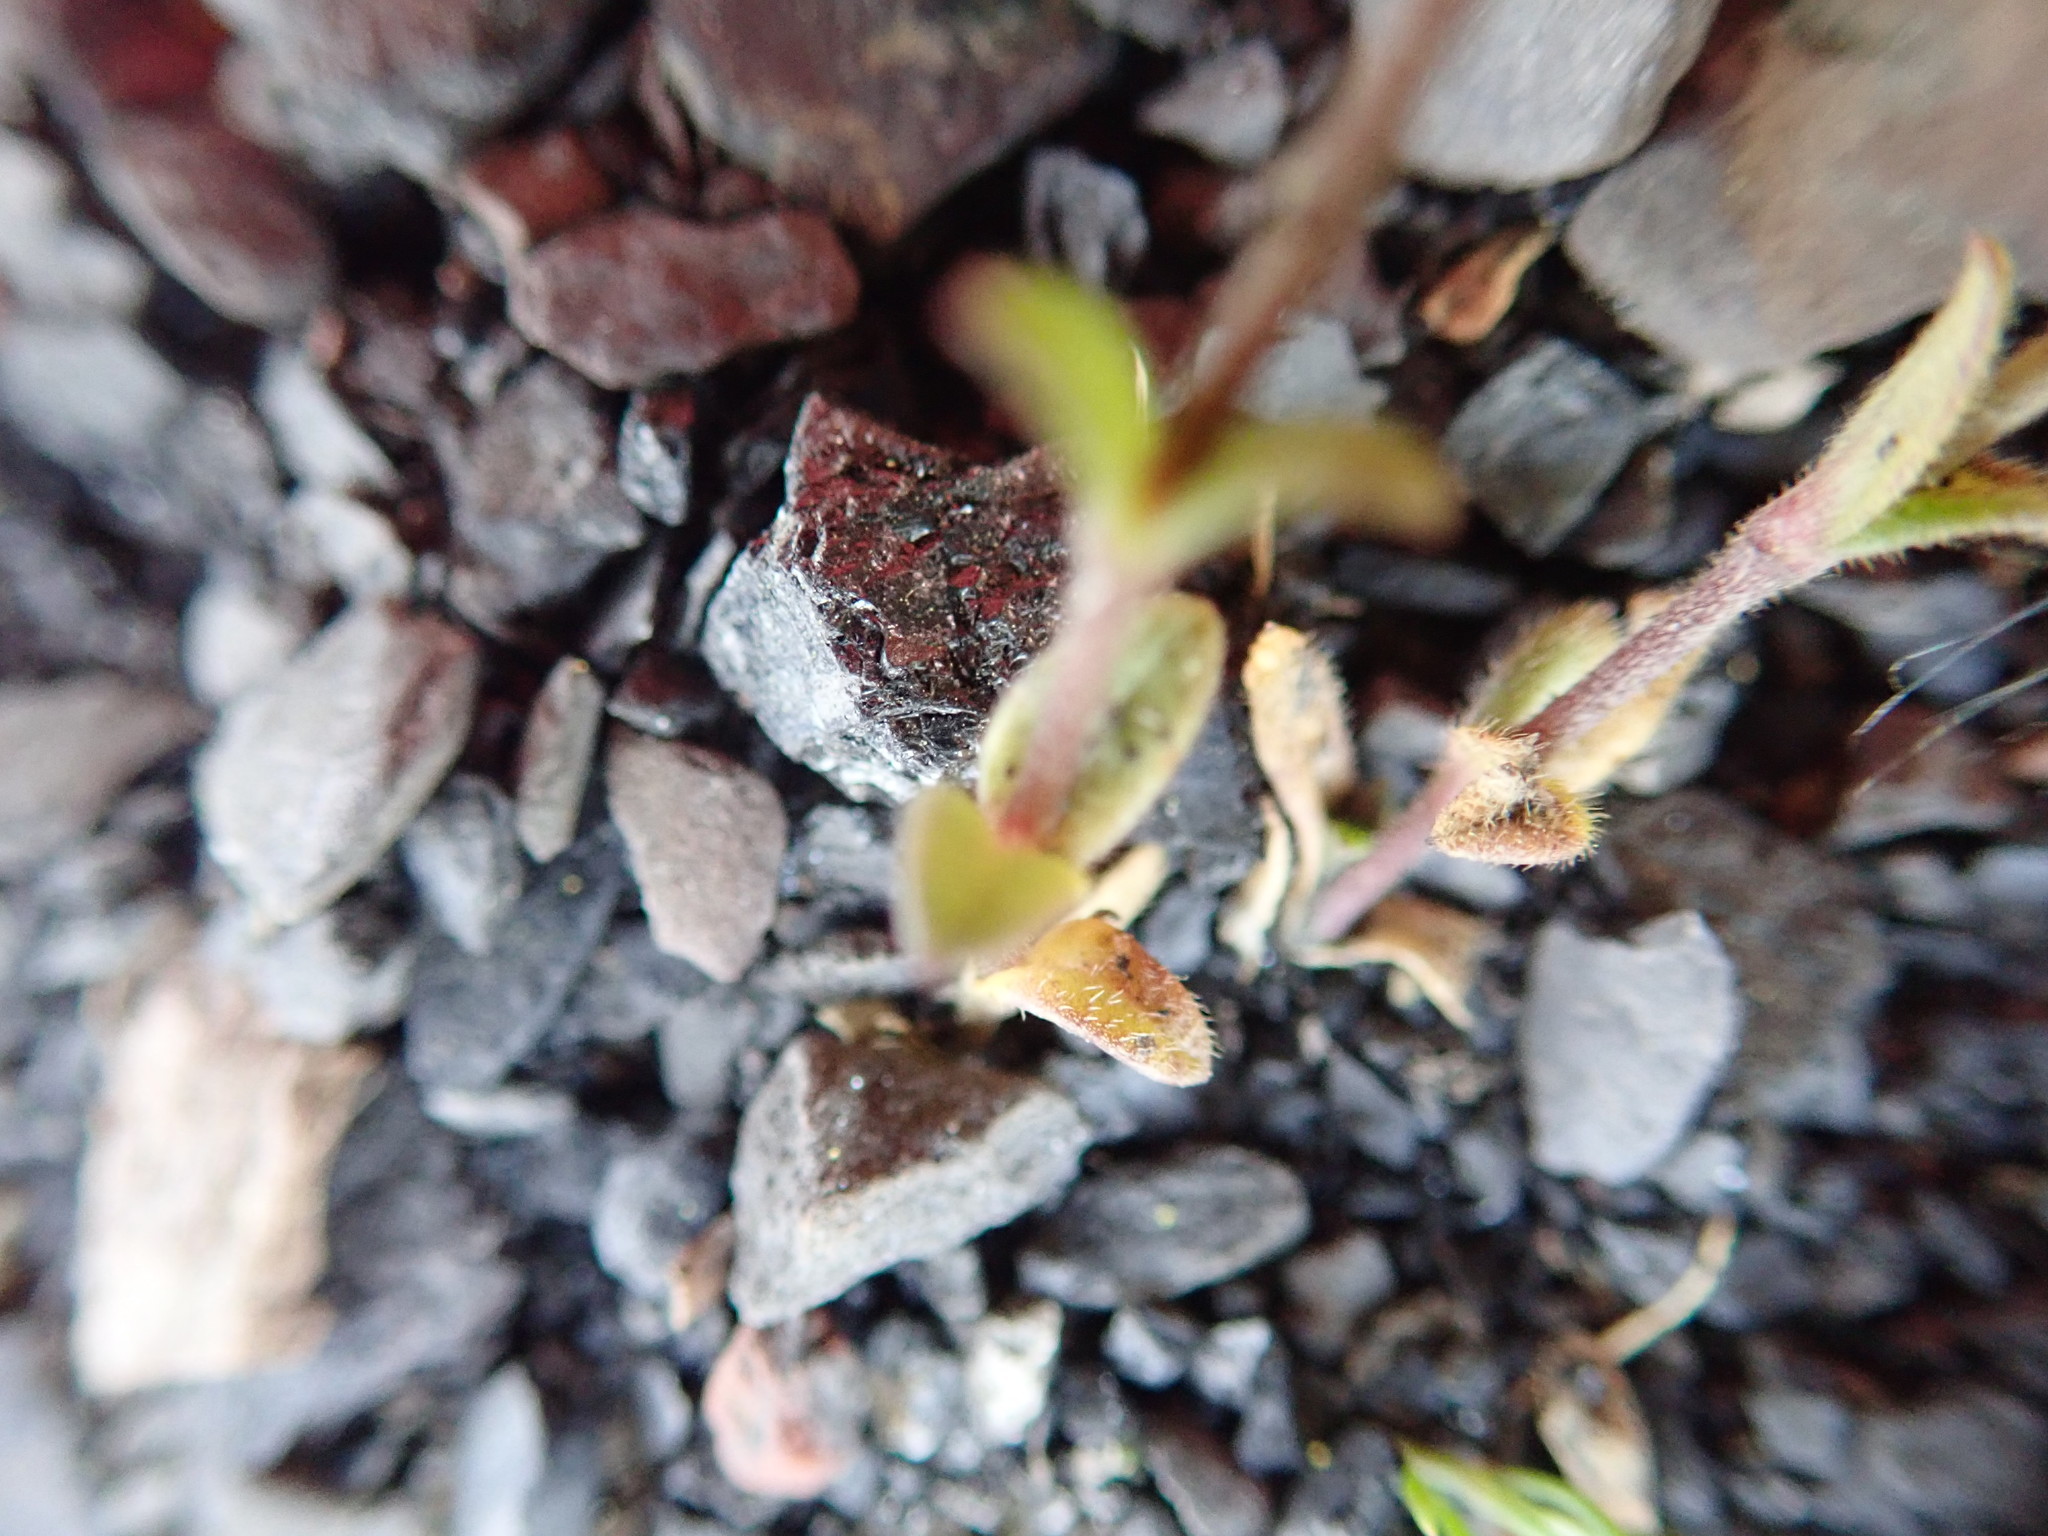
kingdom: Plantae
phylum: Tracheophyta
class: Magnoliopsida
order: Caryophyllales
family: Caryophyllaceae
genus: Cerastium
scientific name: Cerastium
